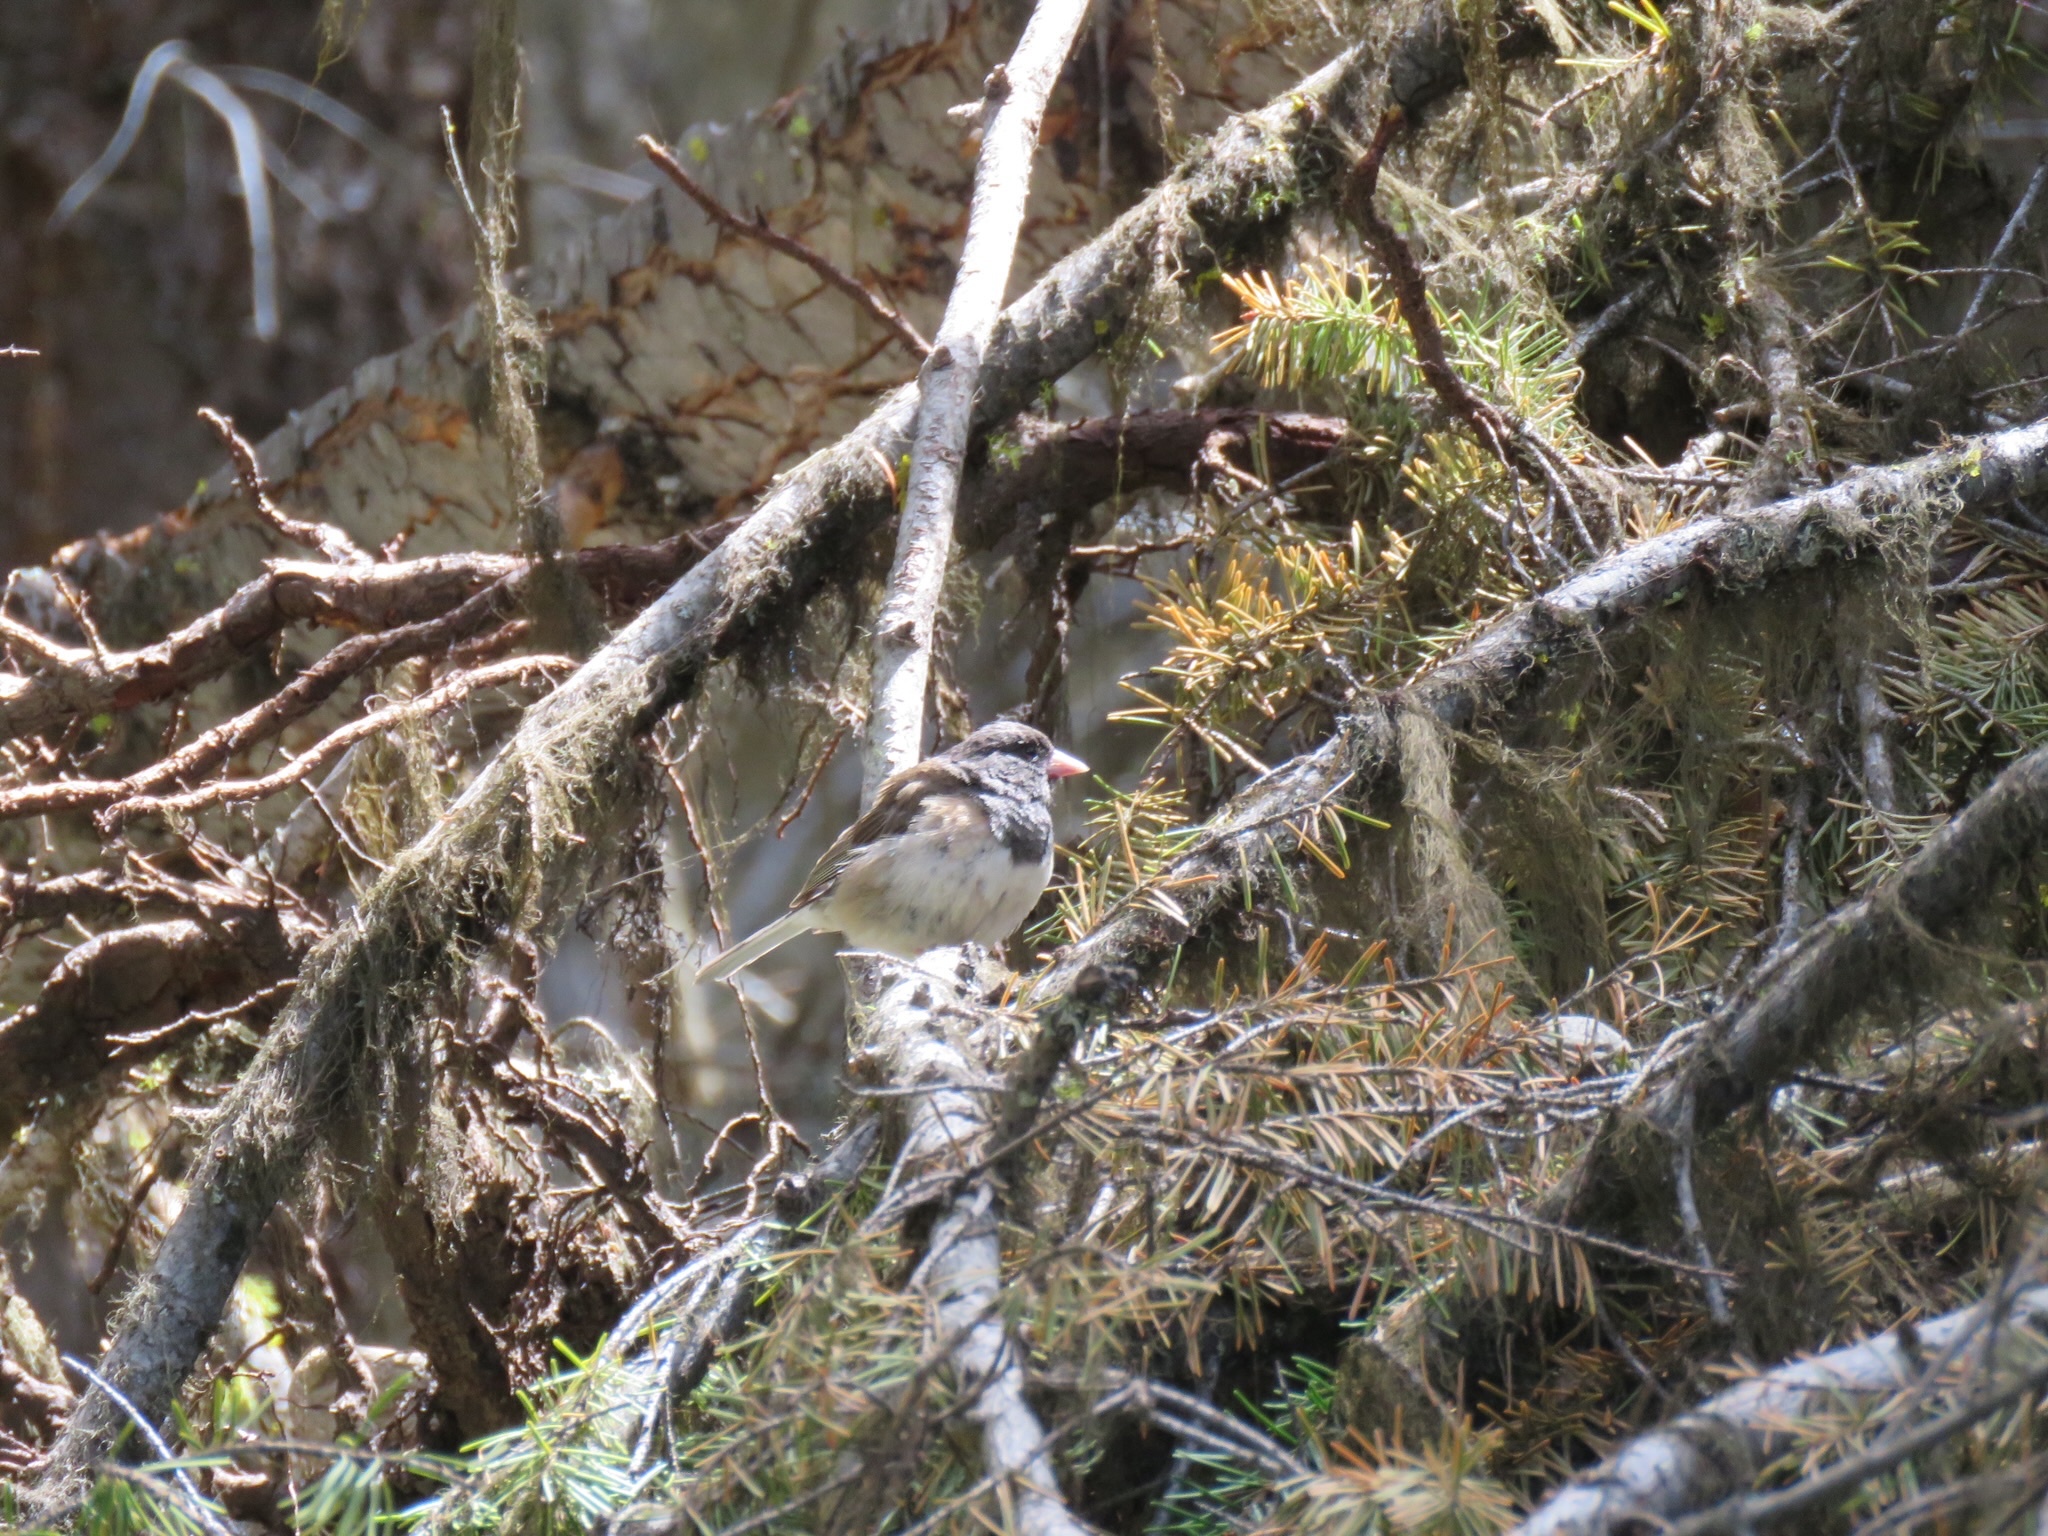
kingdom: Animalia
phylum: Chordata
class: Aves
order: Passeriformes
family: Passerellidae
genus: Junco
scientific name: Junco hyemalis
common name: Dark-eyed junco
